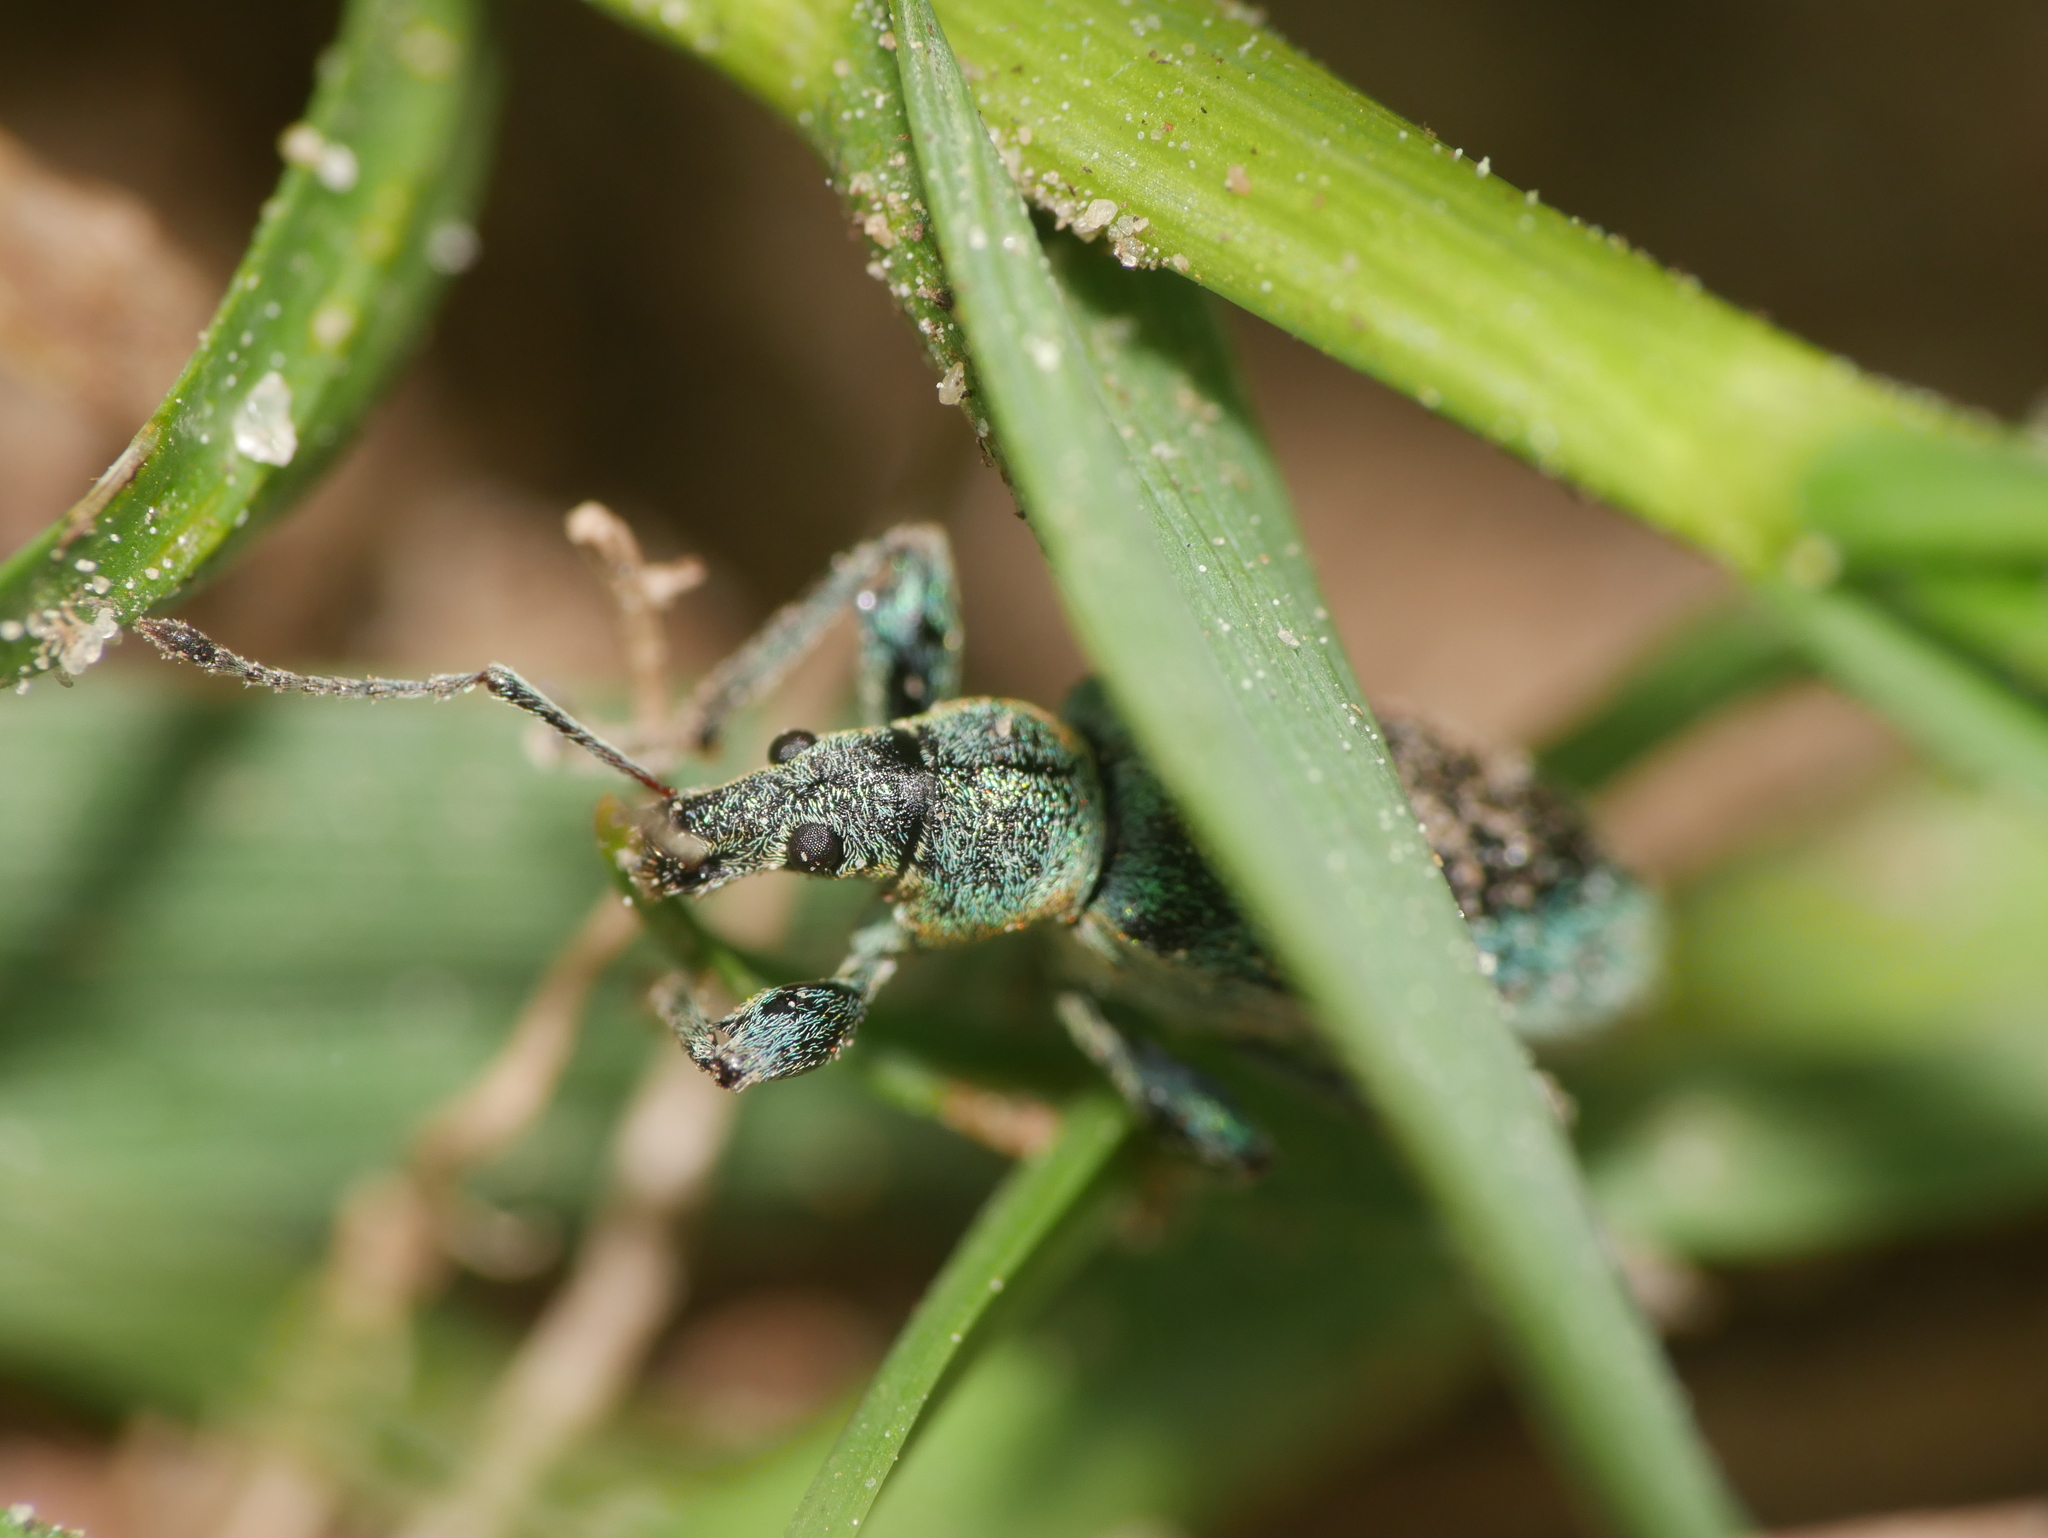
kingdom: Animalia
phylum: Arthropoda
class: Insecta
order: Coleoptera
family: Curculionidae
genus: Phyllobius
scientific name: Phyllobius pomaceus
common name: Green nettle weevil
